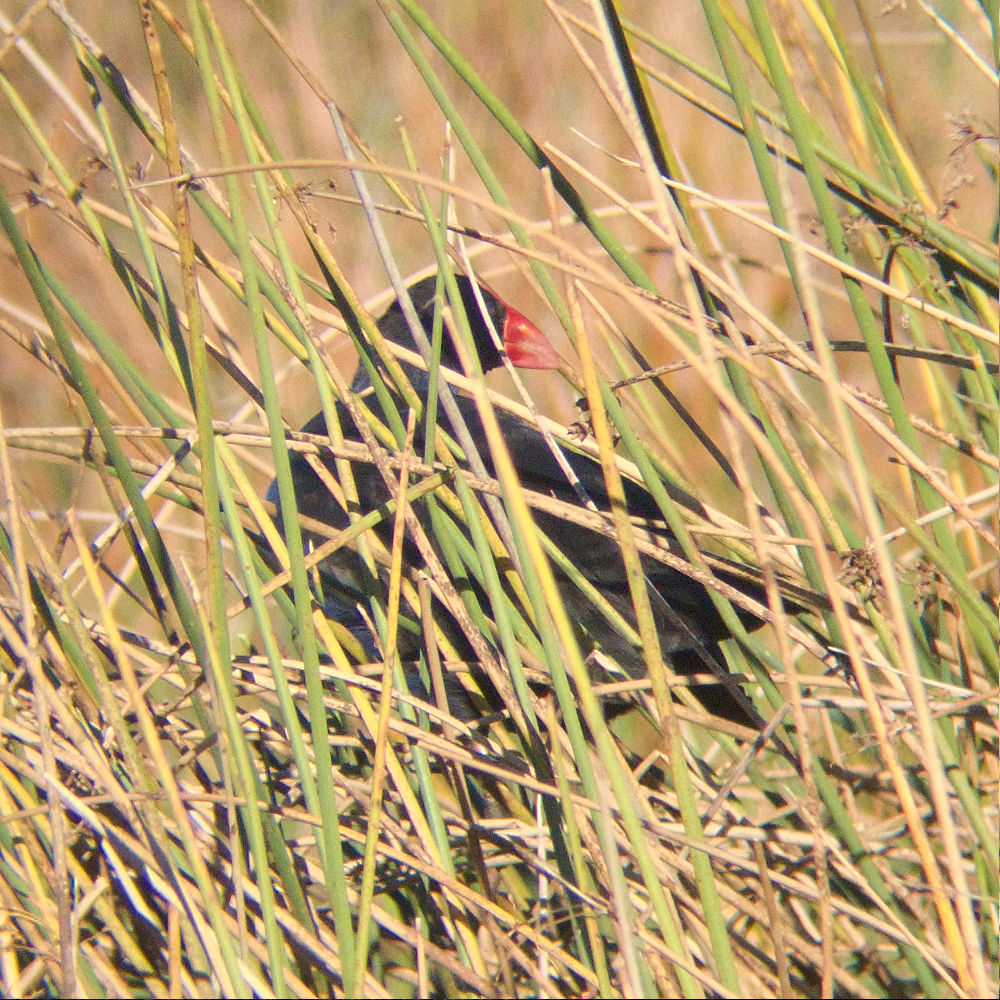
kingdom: Animalia
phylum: Chordata
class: Aves
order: Gruiformes
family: Rallidae
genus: Porphyrio
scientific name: Porphyrio melanotus
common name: Australasian swamphen
